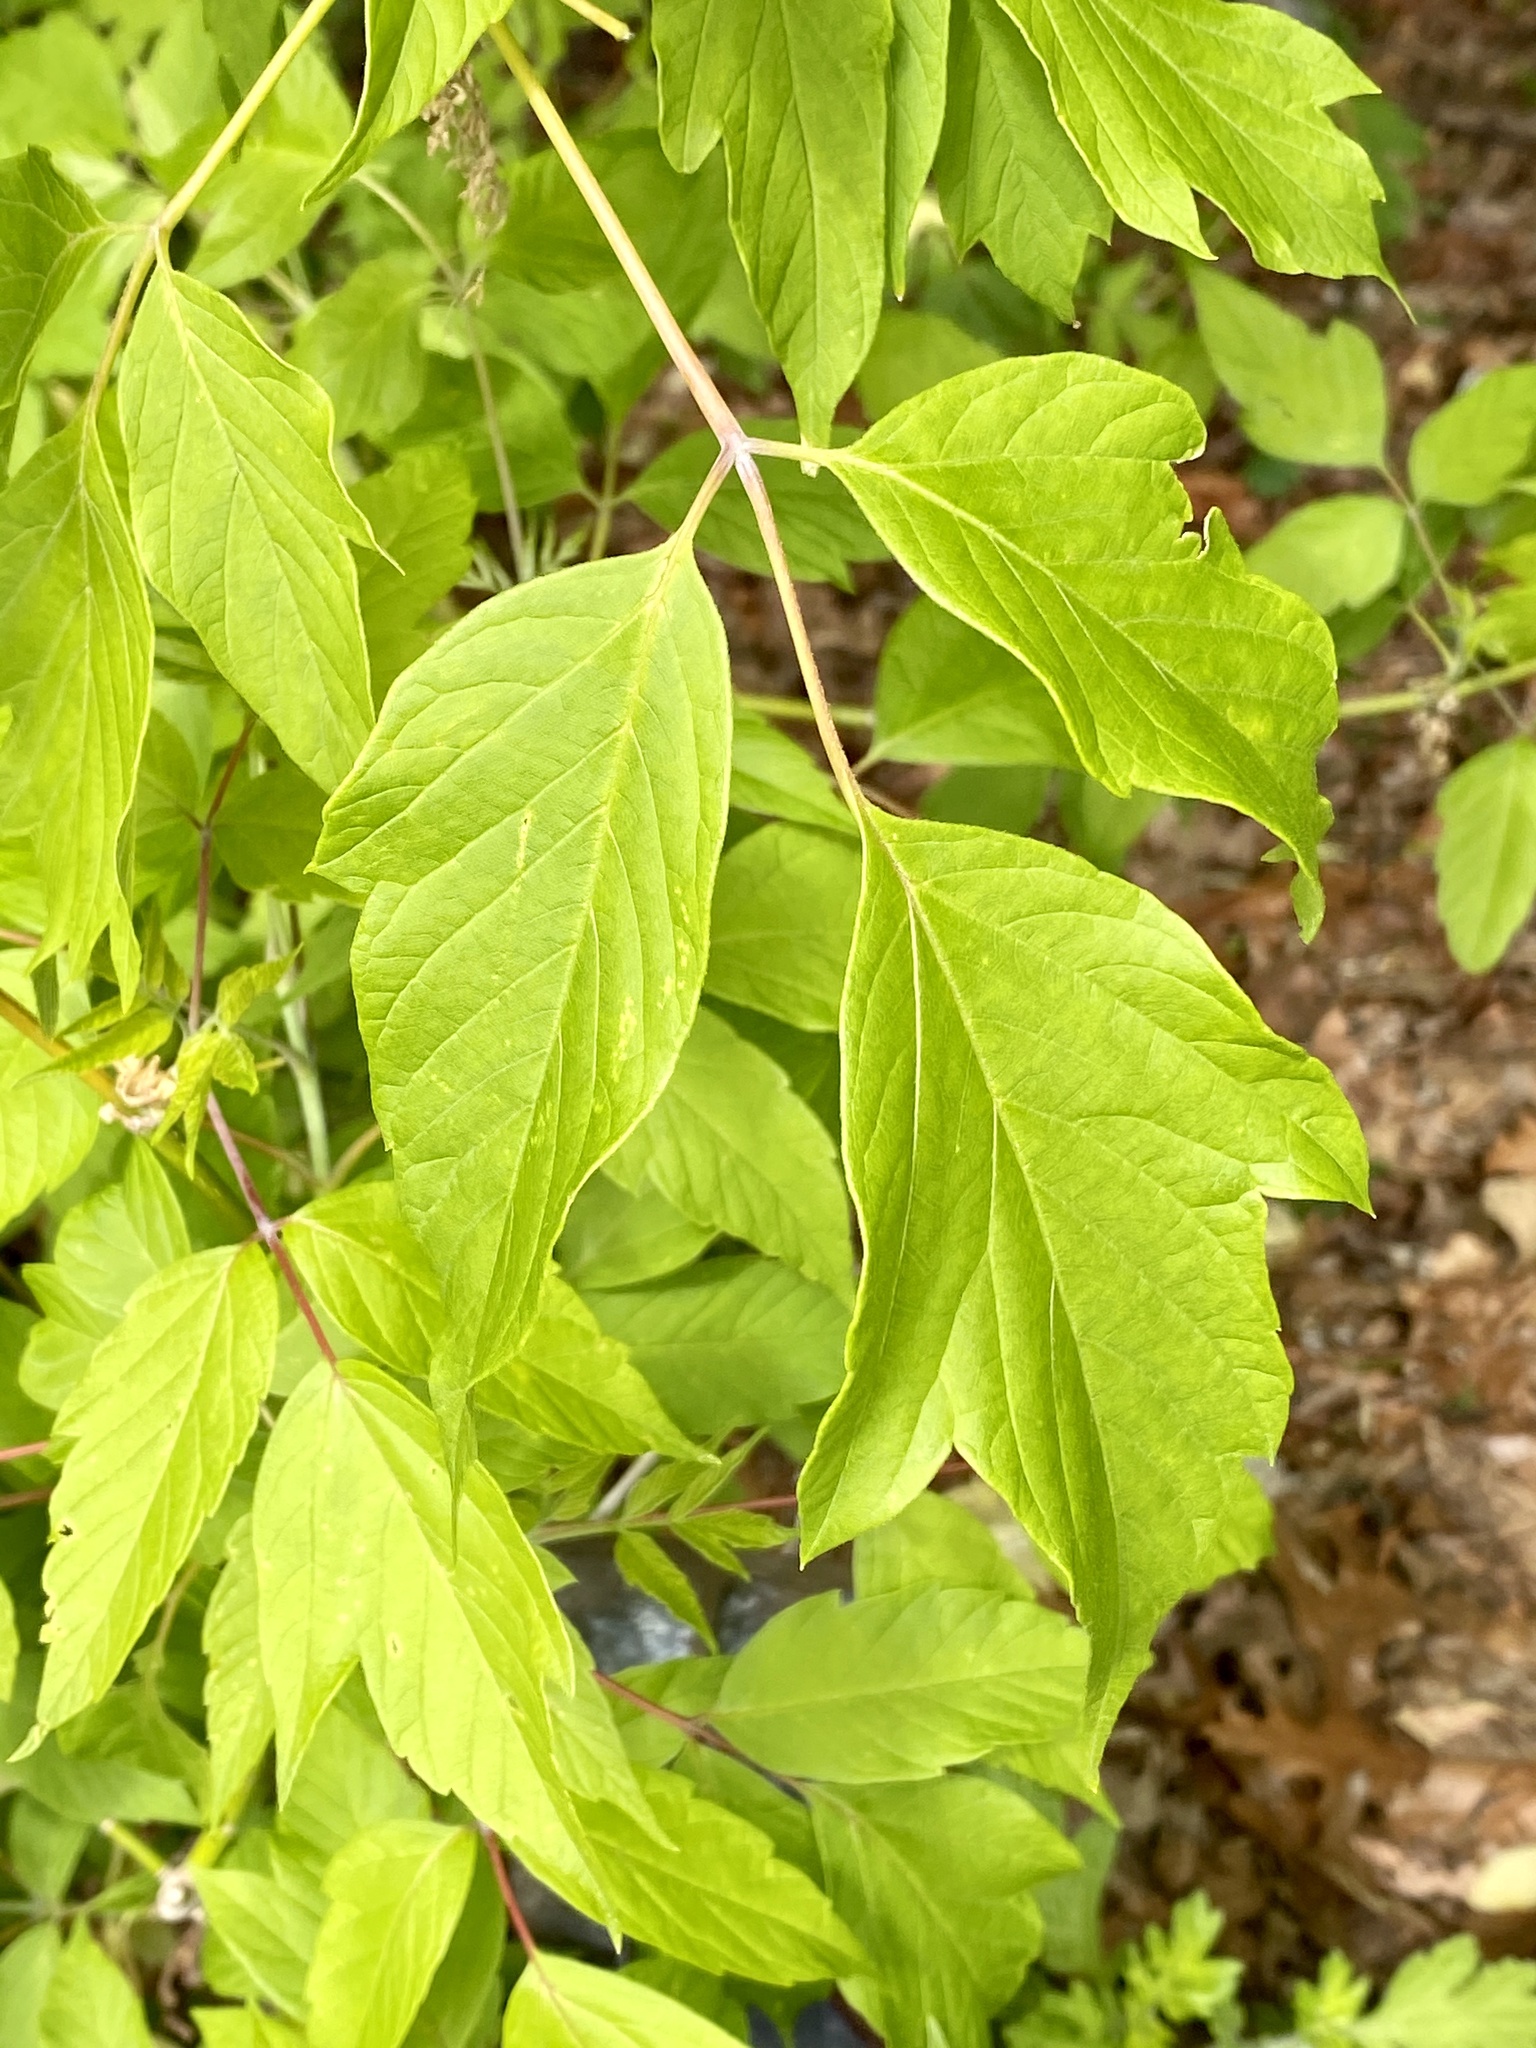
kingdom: Plantae
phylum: Tracheophyta
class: Magnoliopsida
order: Sapindales
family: Sapindaceae
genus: Acer
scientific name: Acer negundo
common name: Ashleaf maple
